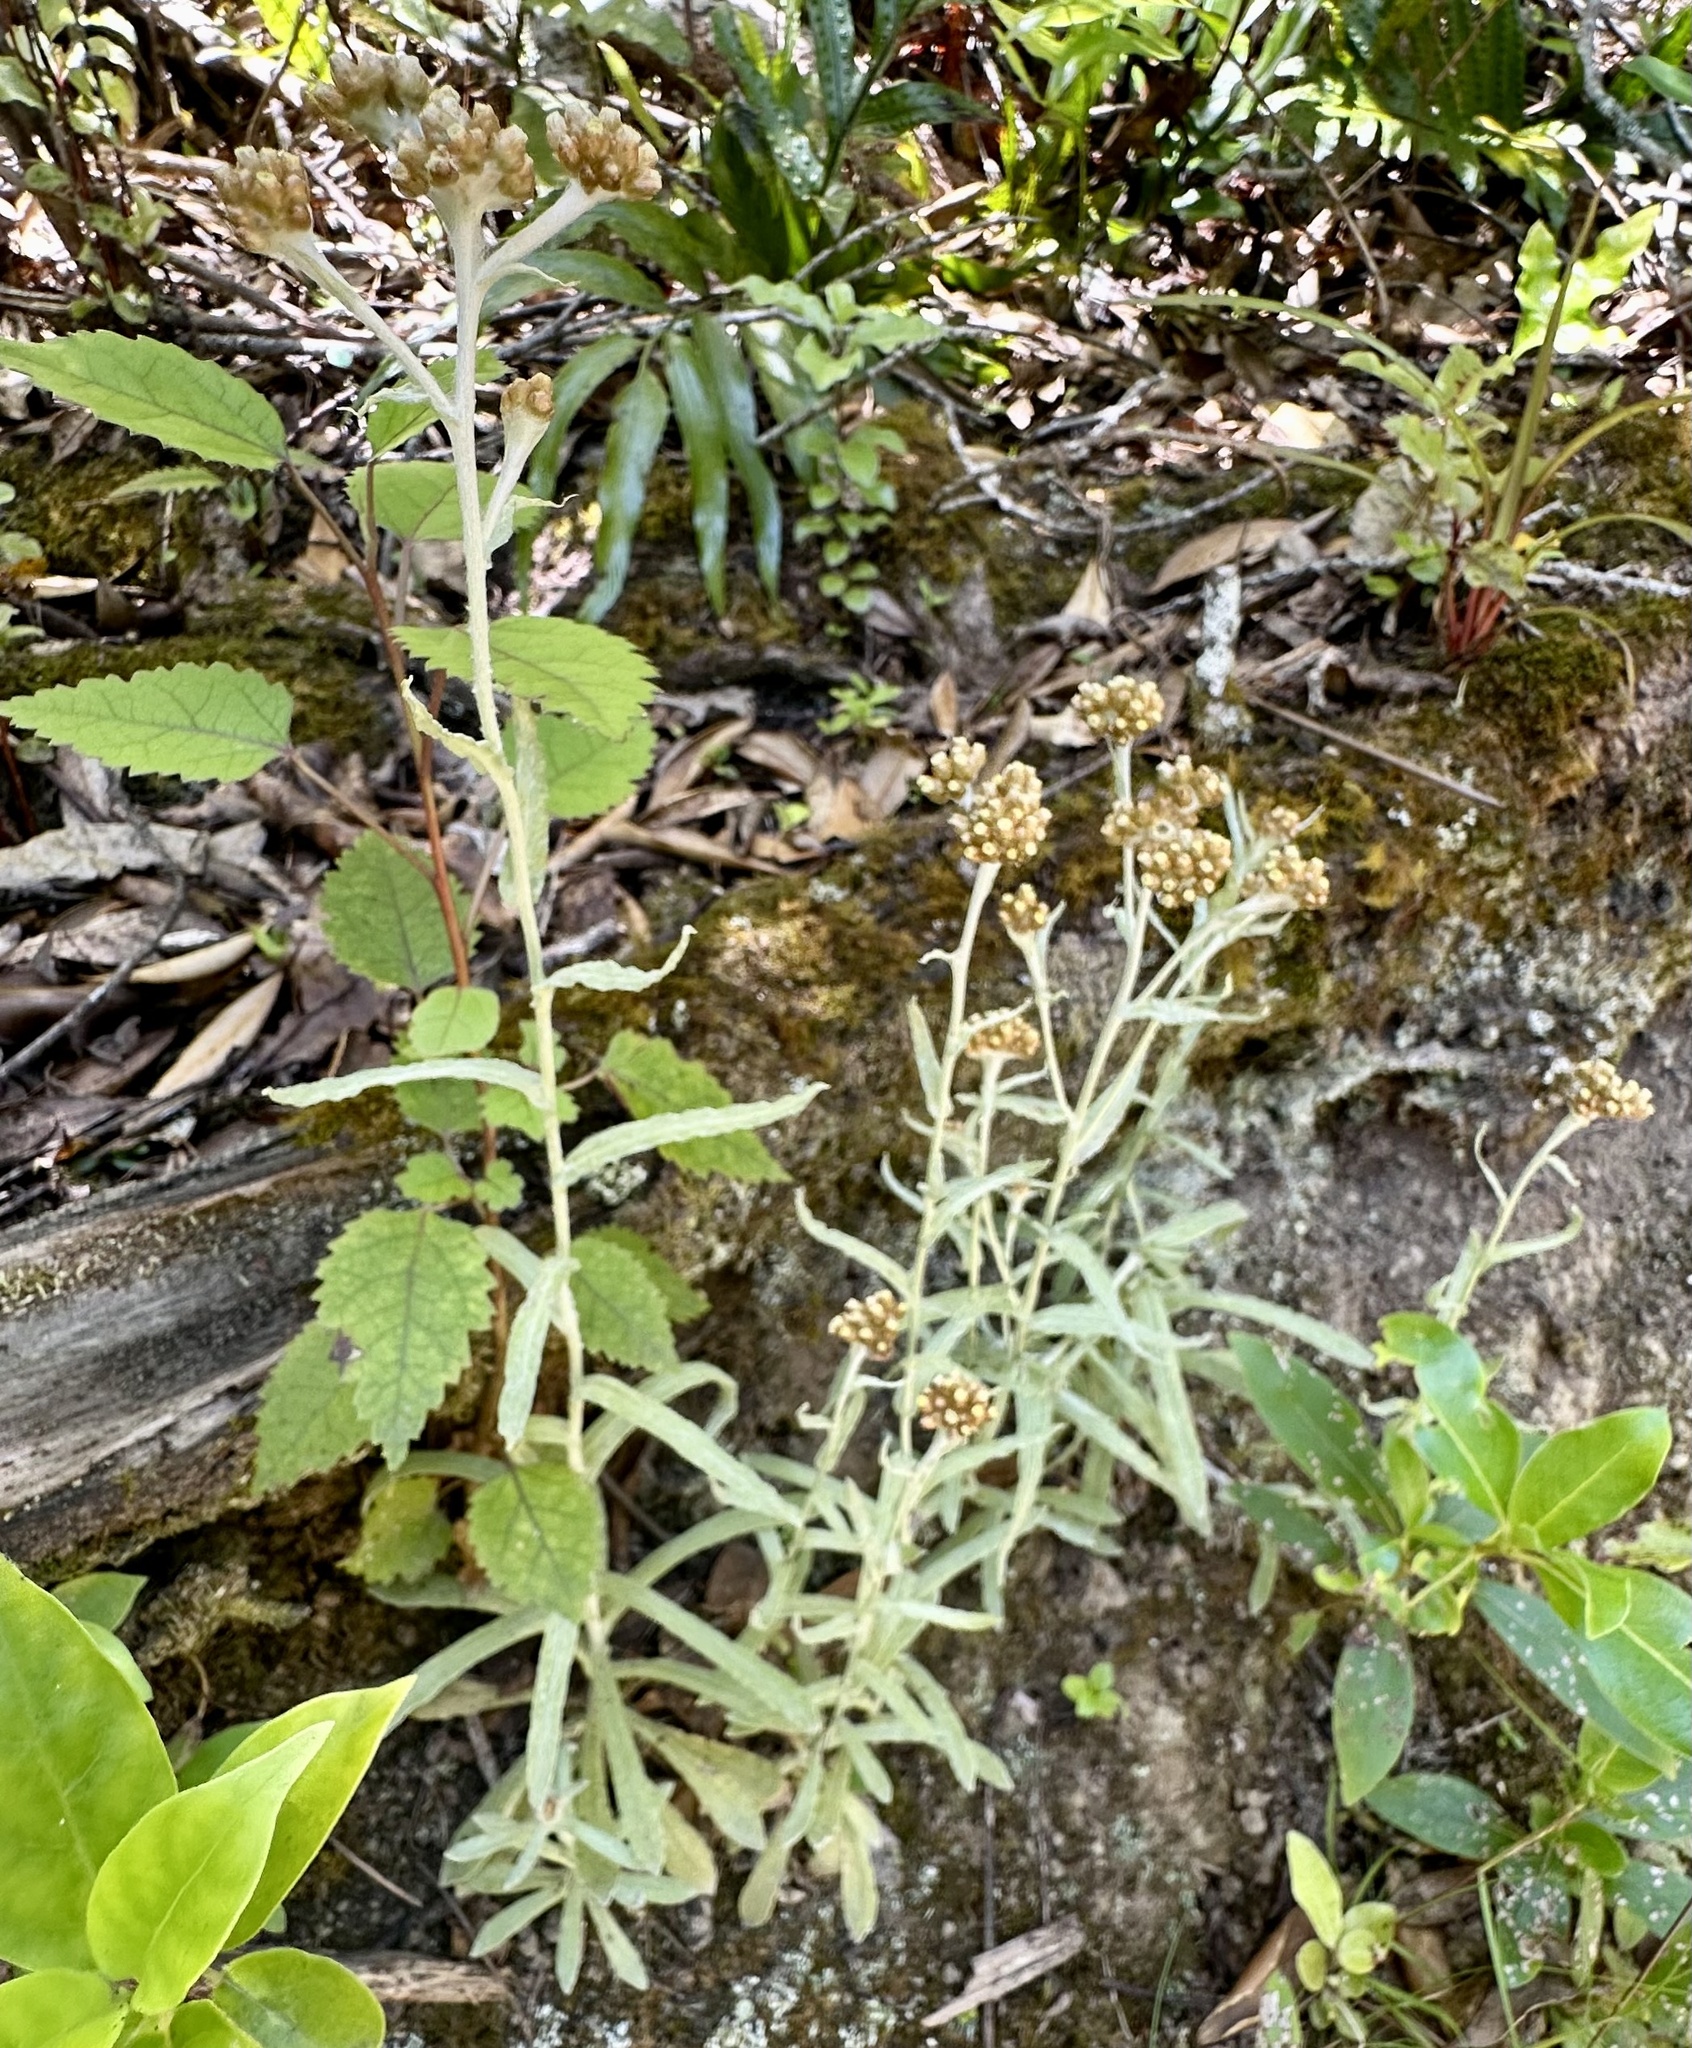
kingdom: Plantae
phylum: Tracheophyta
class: Magnoliopsida
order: Asterales
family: Asteraceae
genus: Pseudognaphalium
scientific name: Pseudognaphalium
